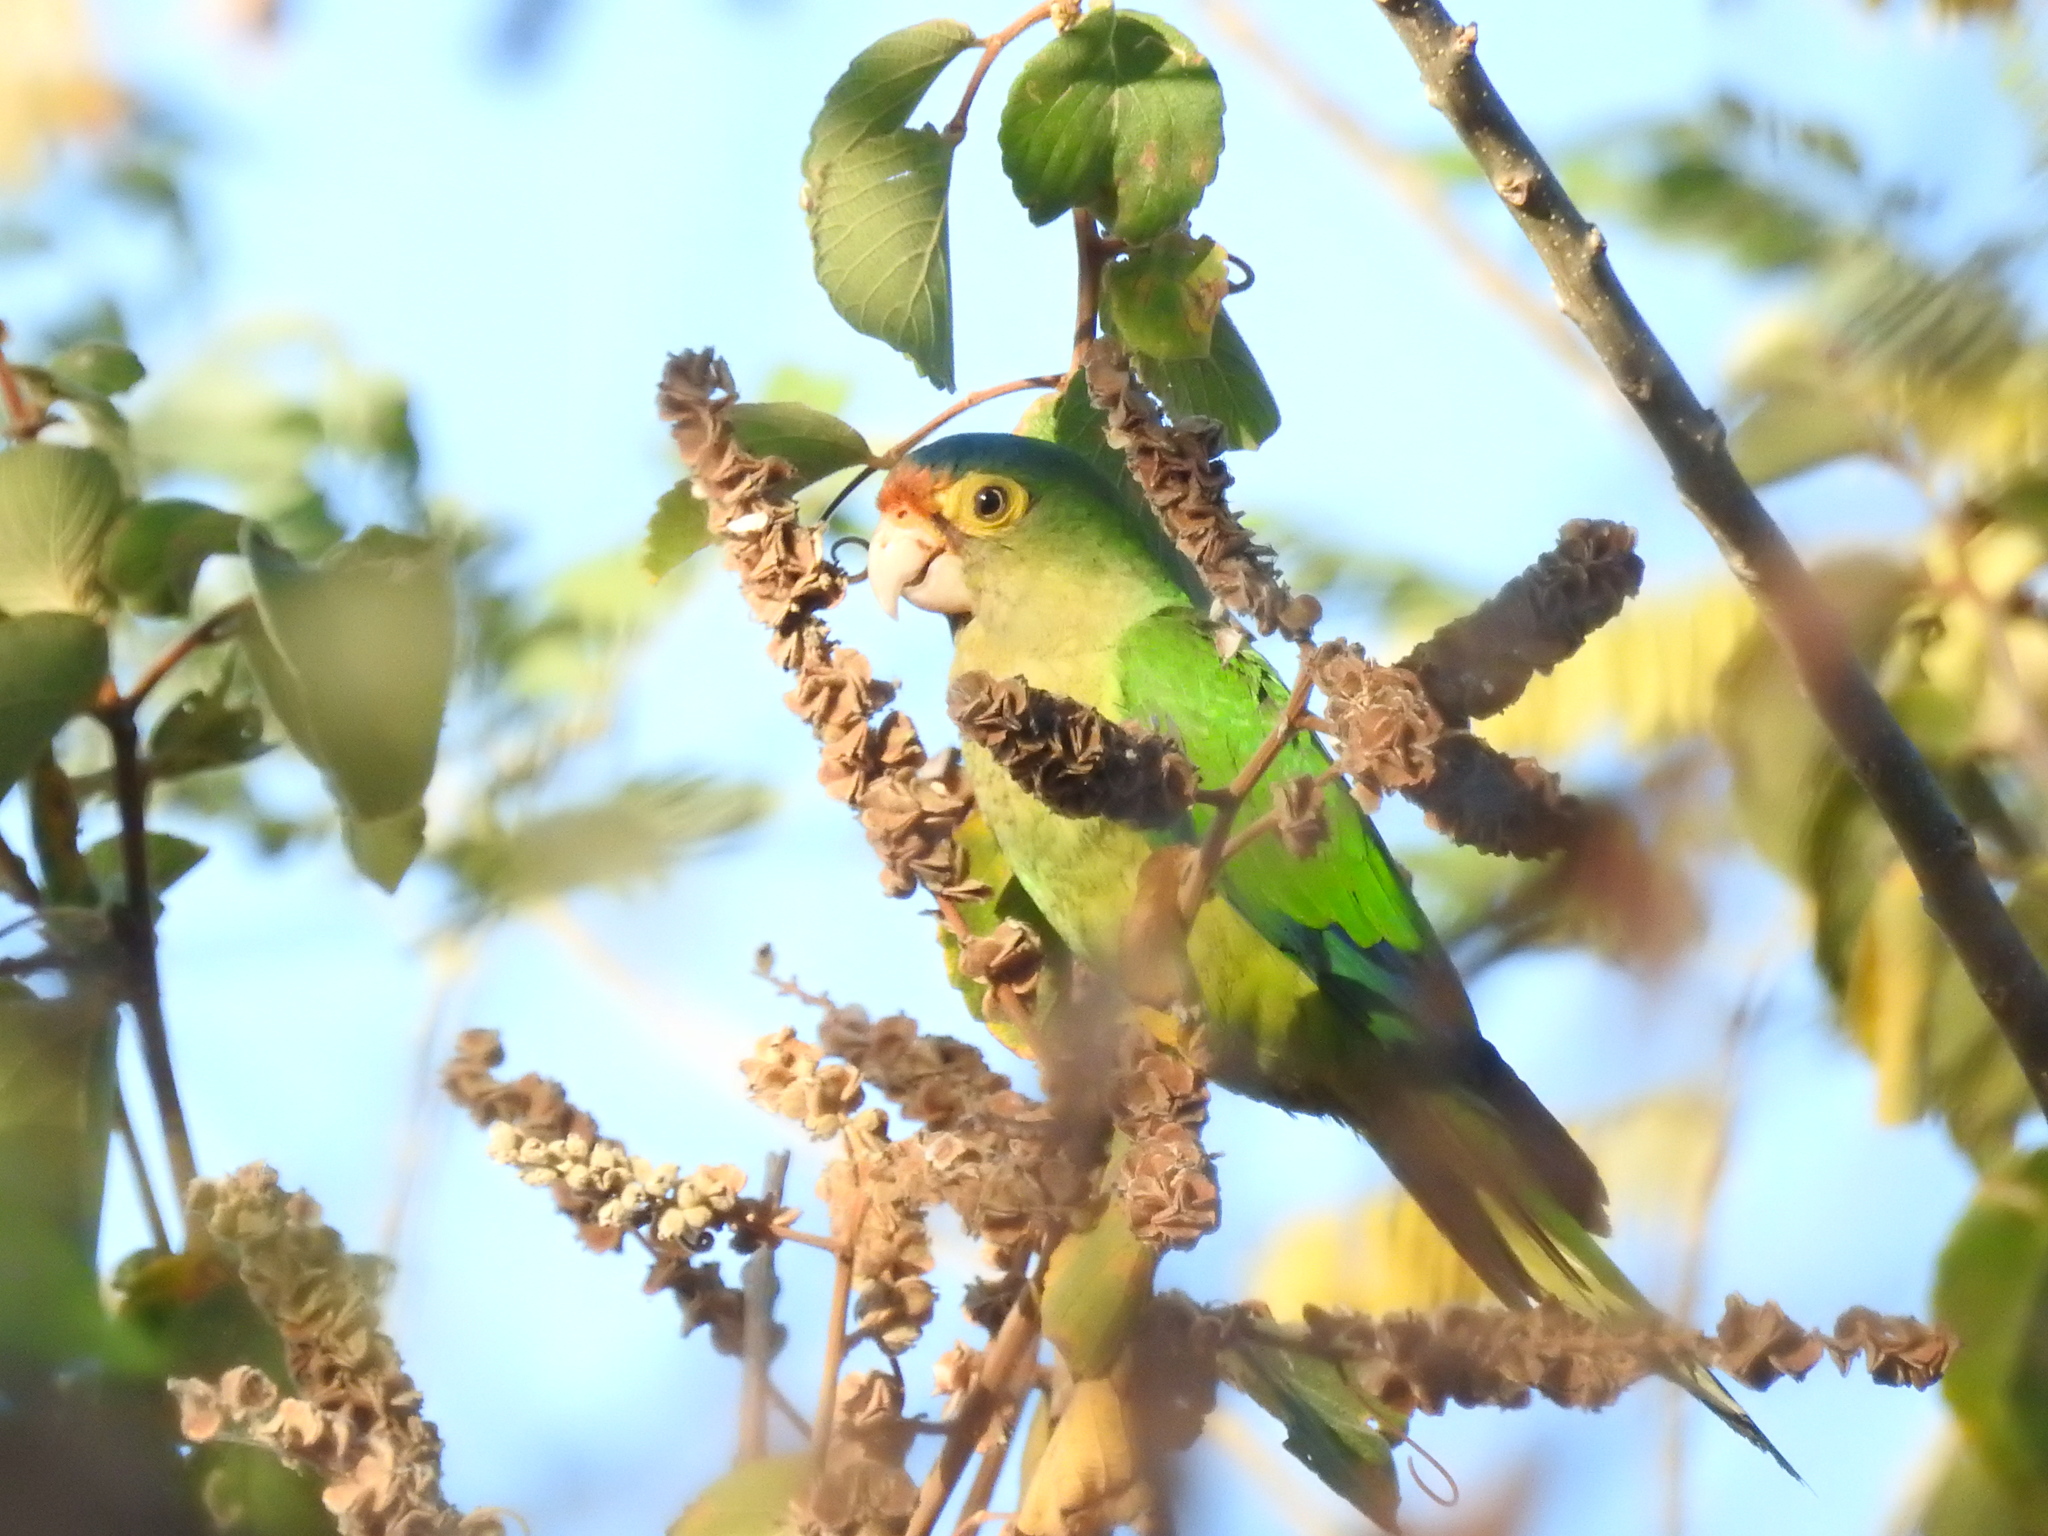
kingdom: Animalia
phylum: Chordata
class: Aves
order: Psittaciformes
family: Psittacidae
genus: Aratinga
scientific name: Aratinga canicularis
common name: Orange-fronted parakeet
